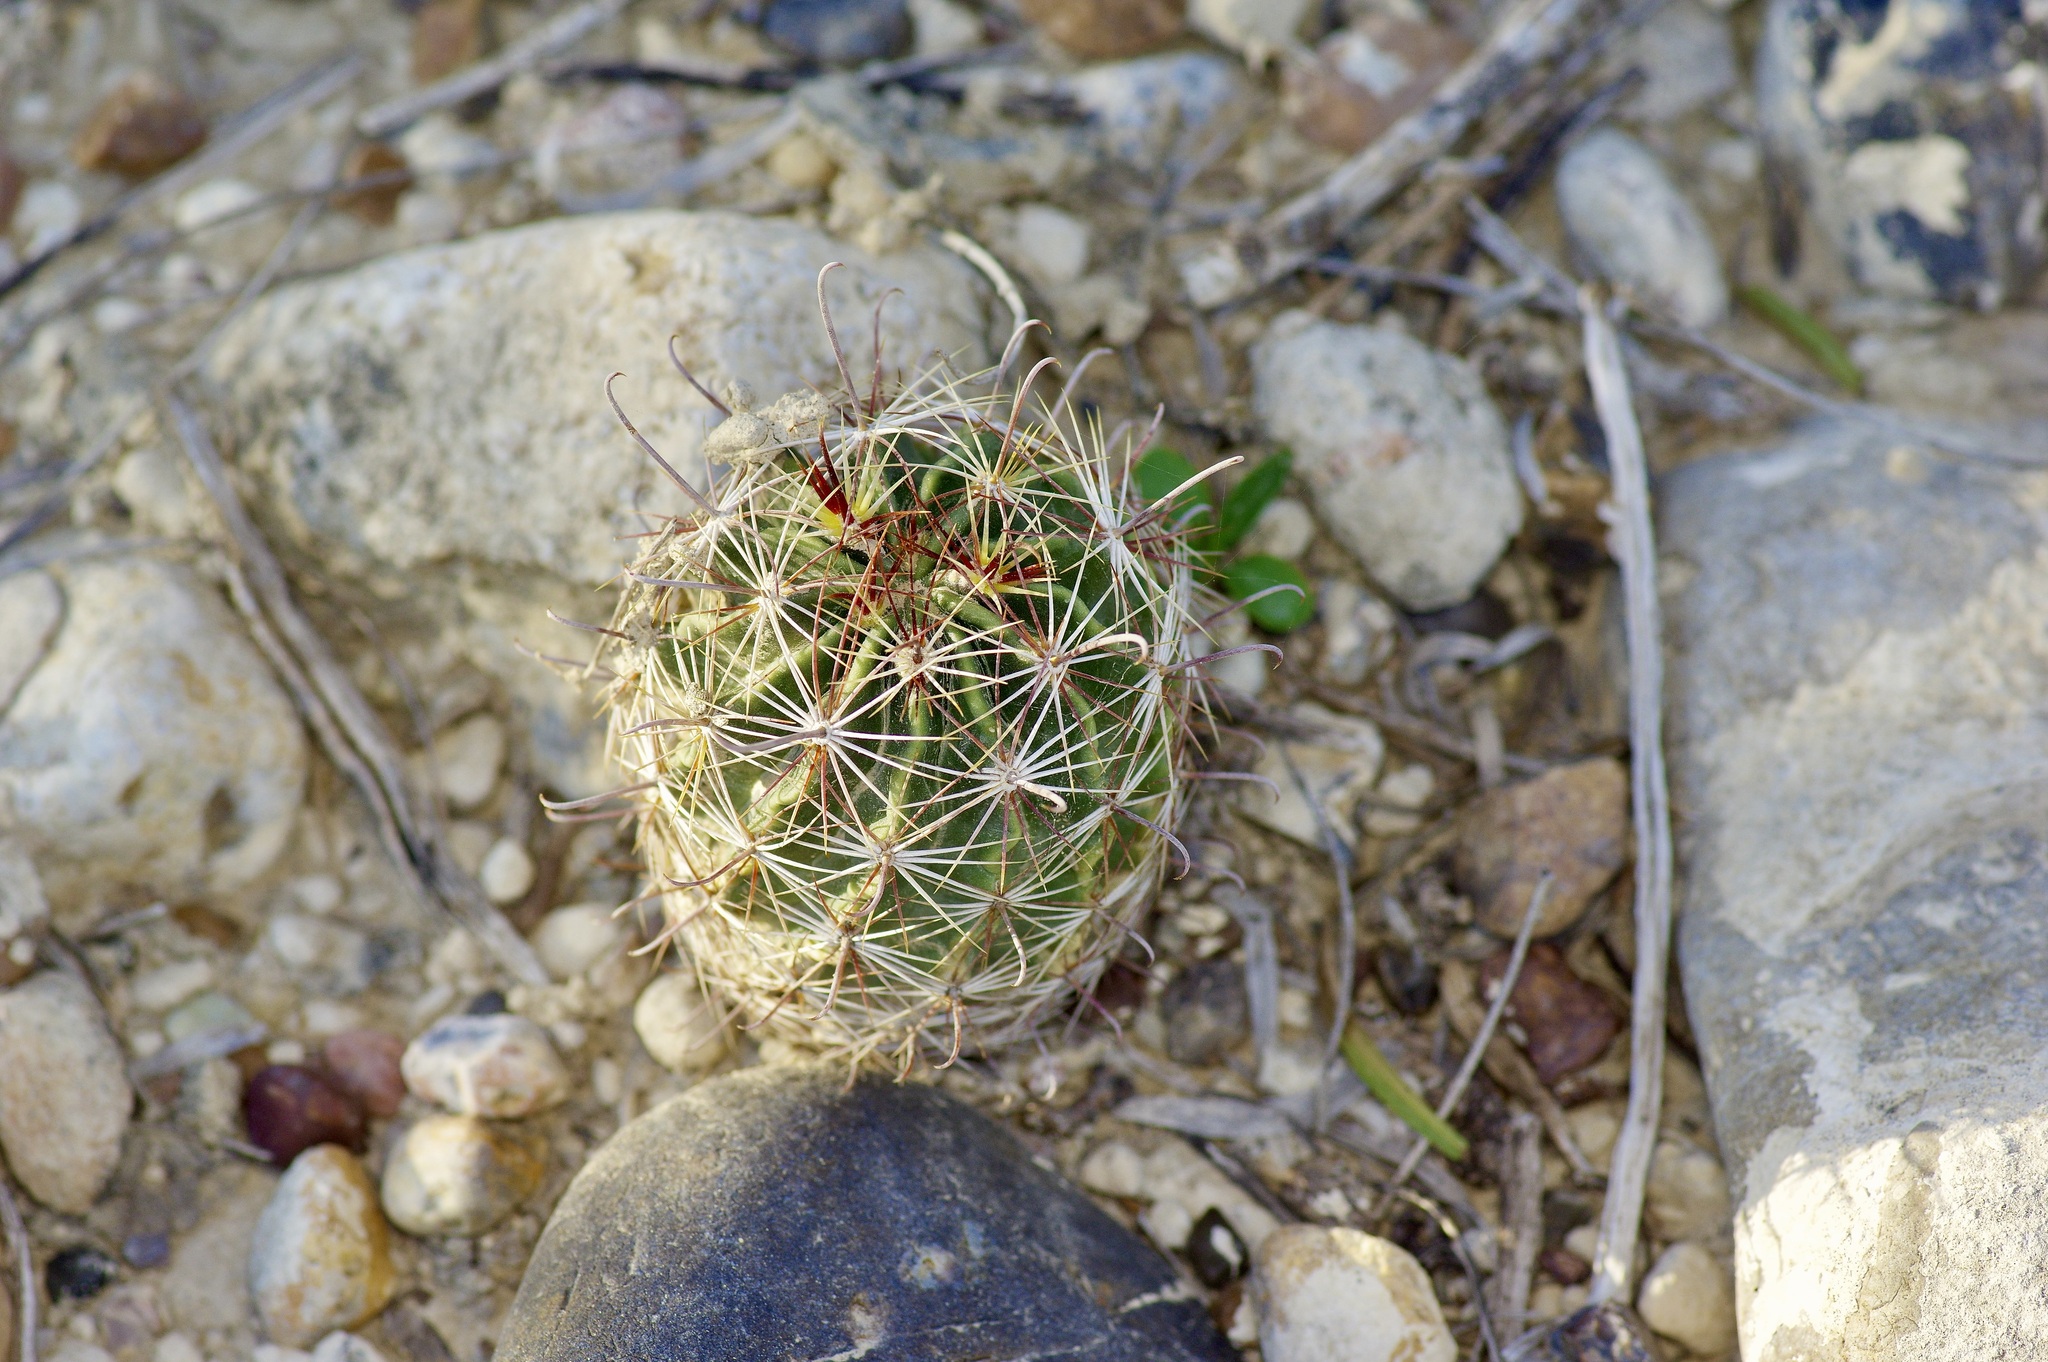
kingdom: Plantae
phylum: Tracheophyta
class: Magnoliopsida
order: Caryophyllales
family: Cactaceae
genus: Thelocactus
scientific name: Thelocactus setispinus
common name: Miniature barrel cactus
